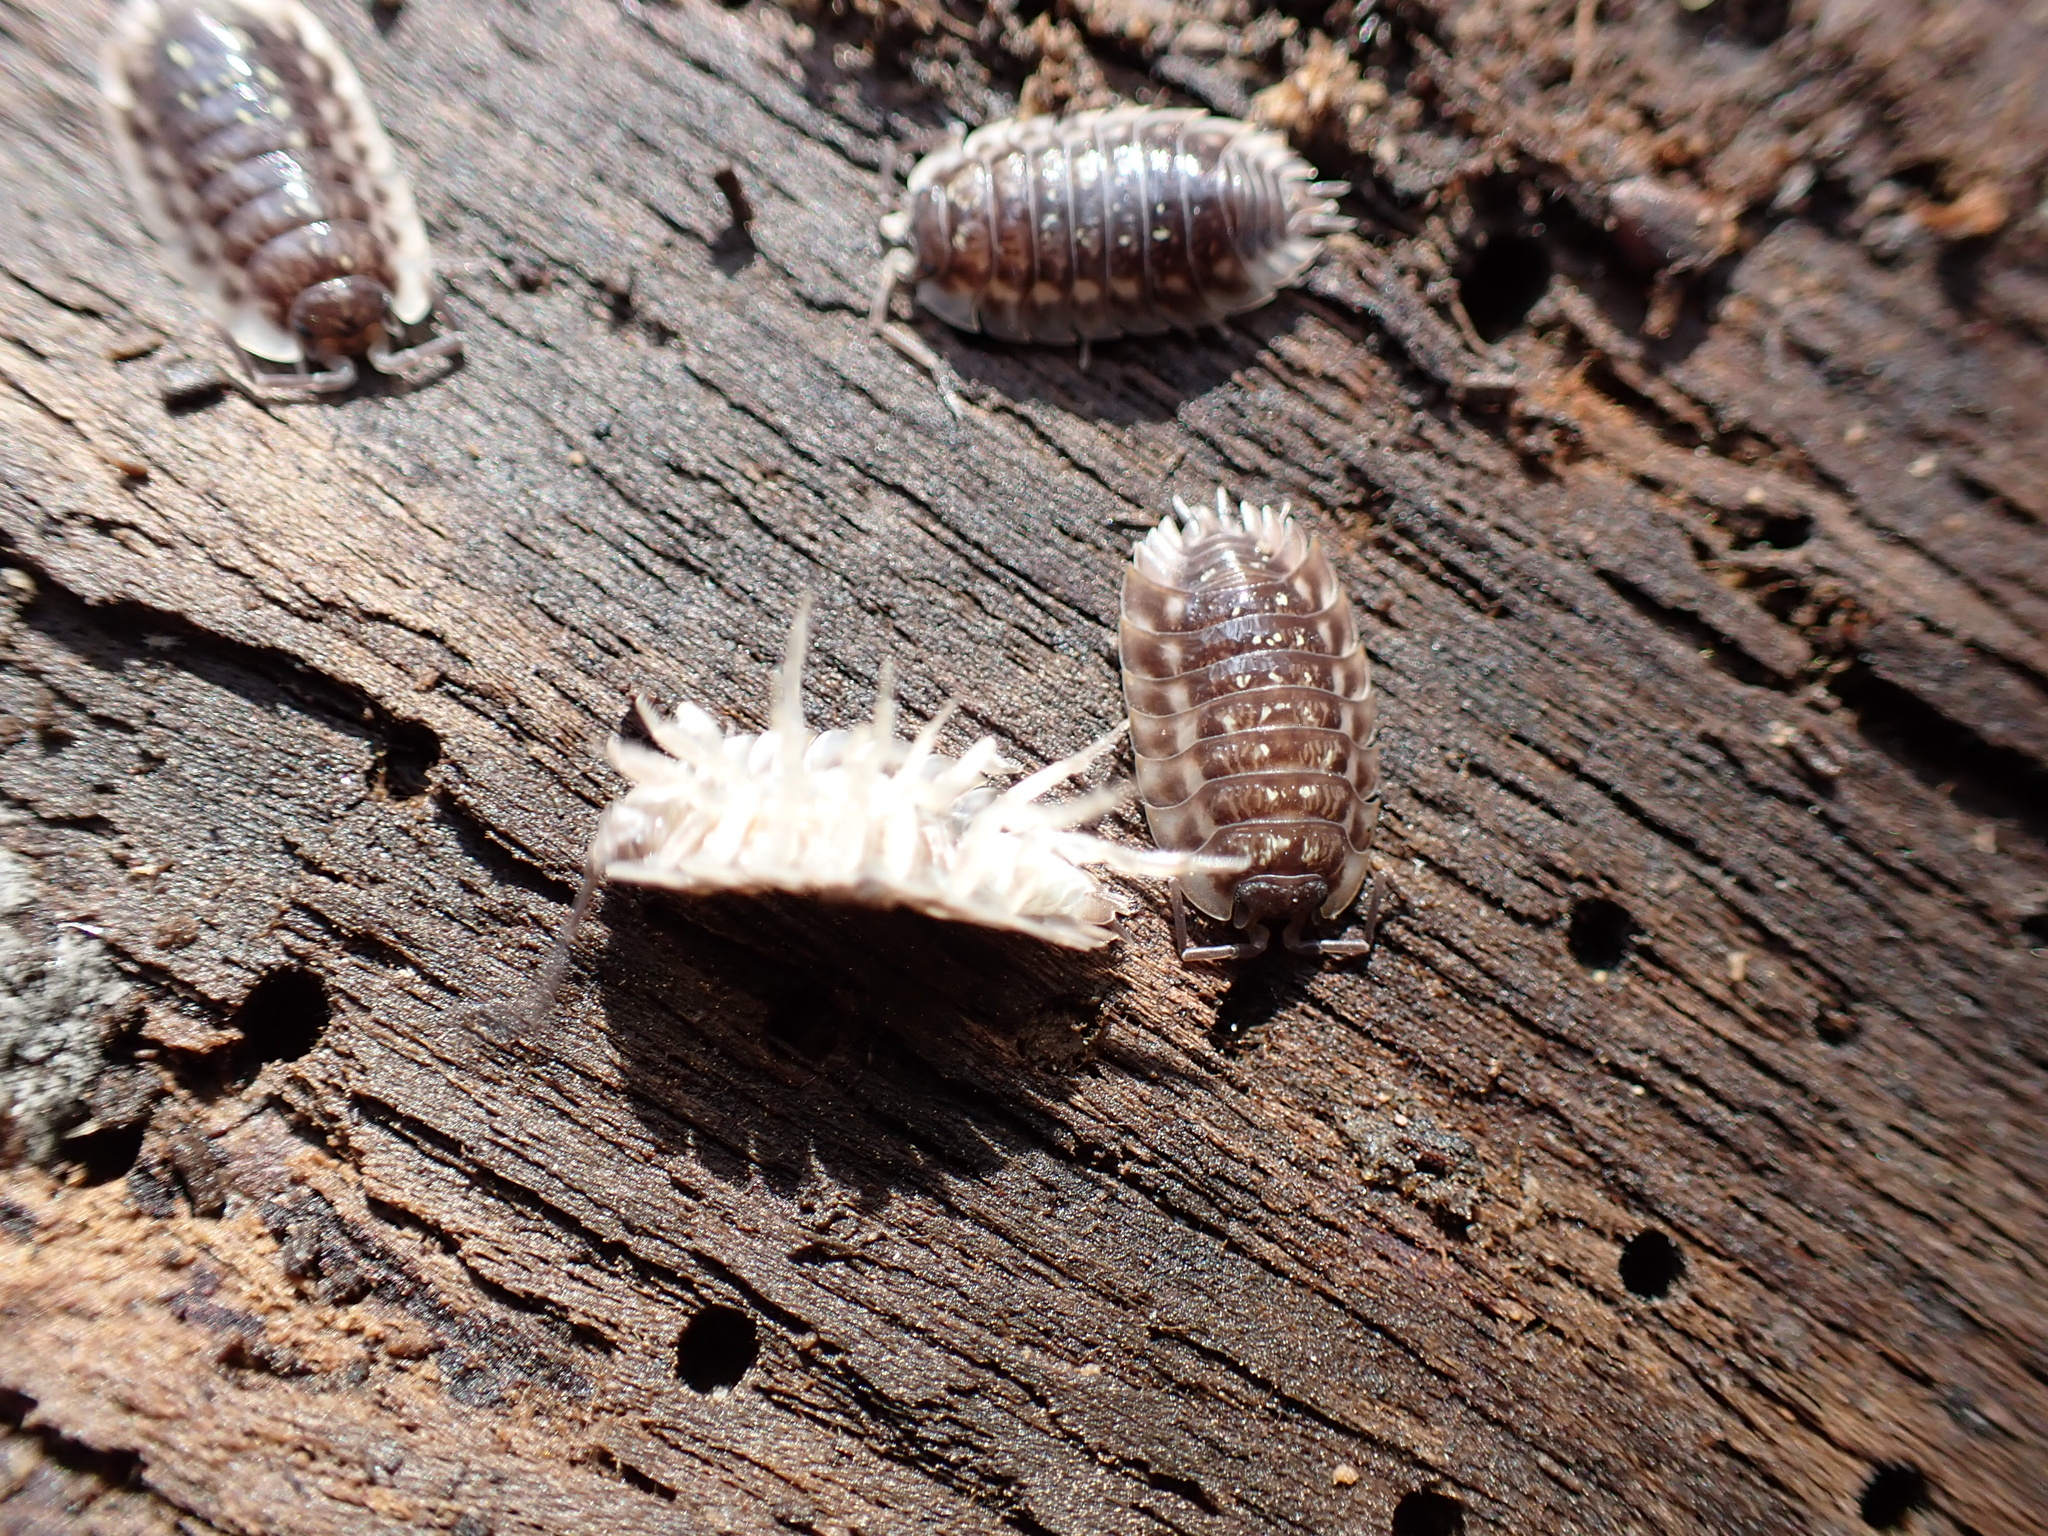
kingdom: Animalia
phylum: Arthropoda
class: Malacostraca
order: Isopoda
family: Oniscidae
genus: Oniscus
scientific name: Oniscus asellus
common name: Common shiny woodlouse
